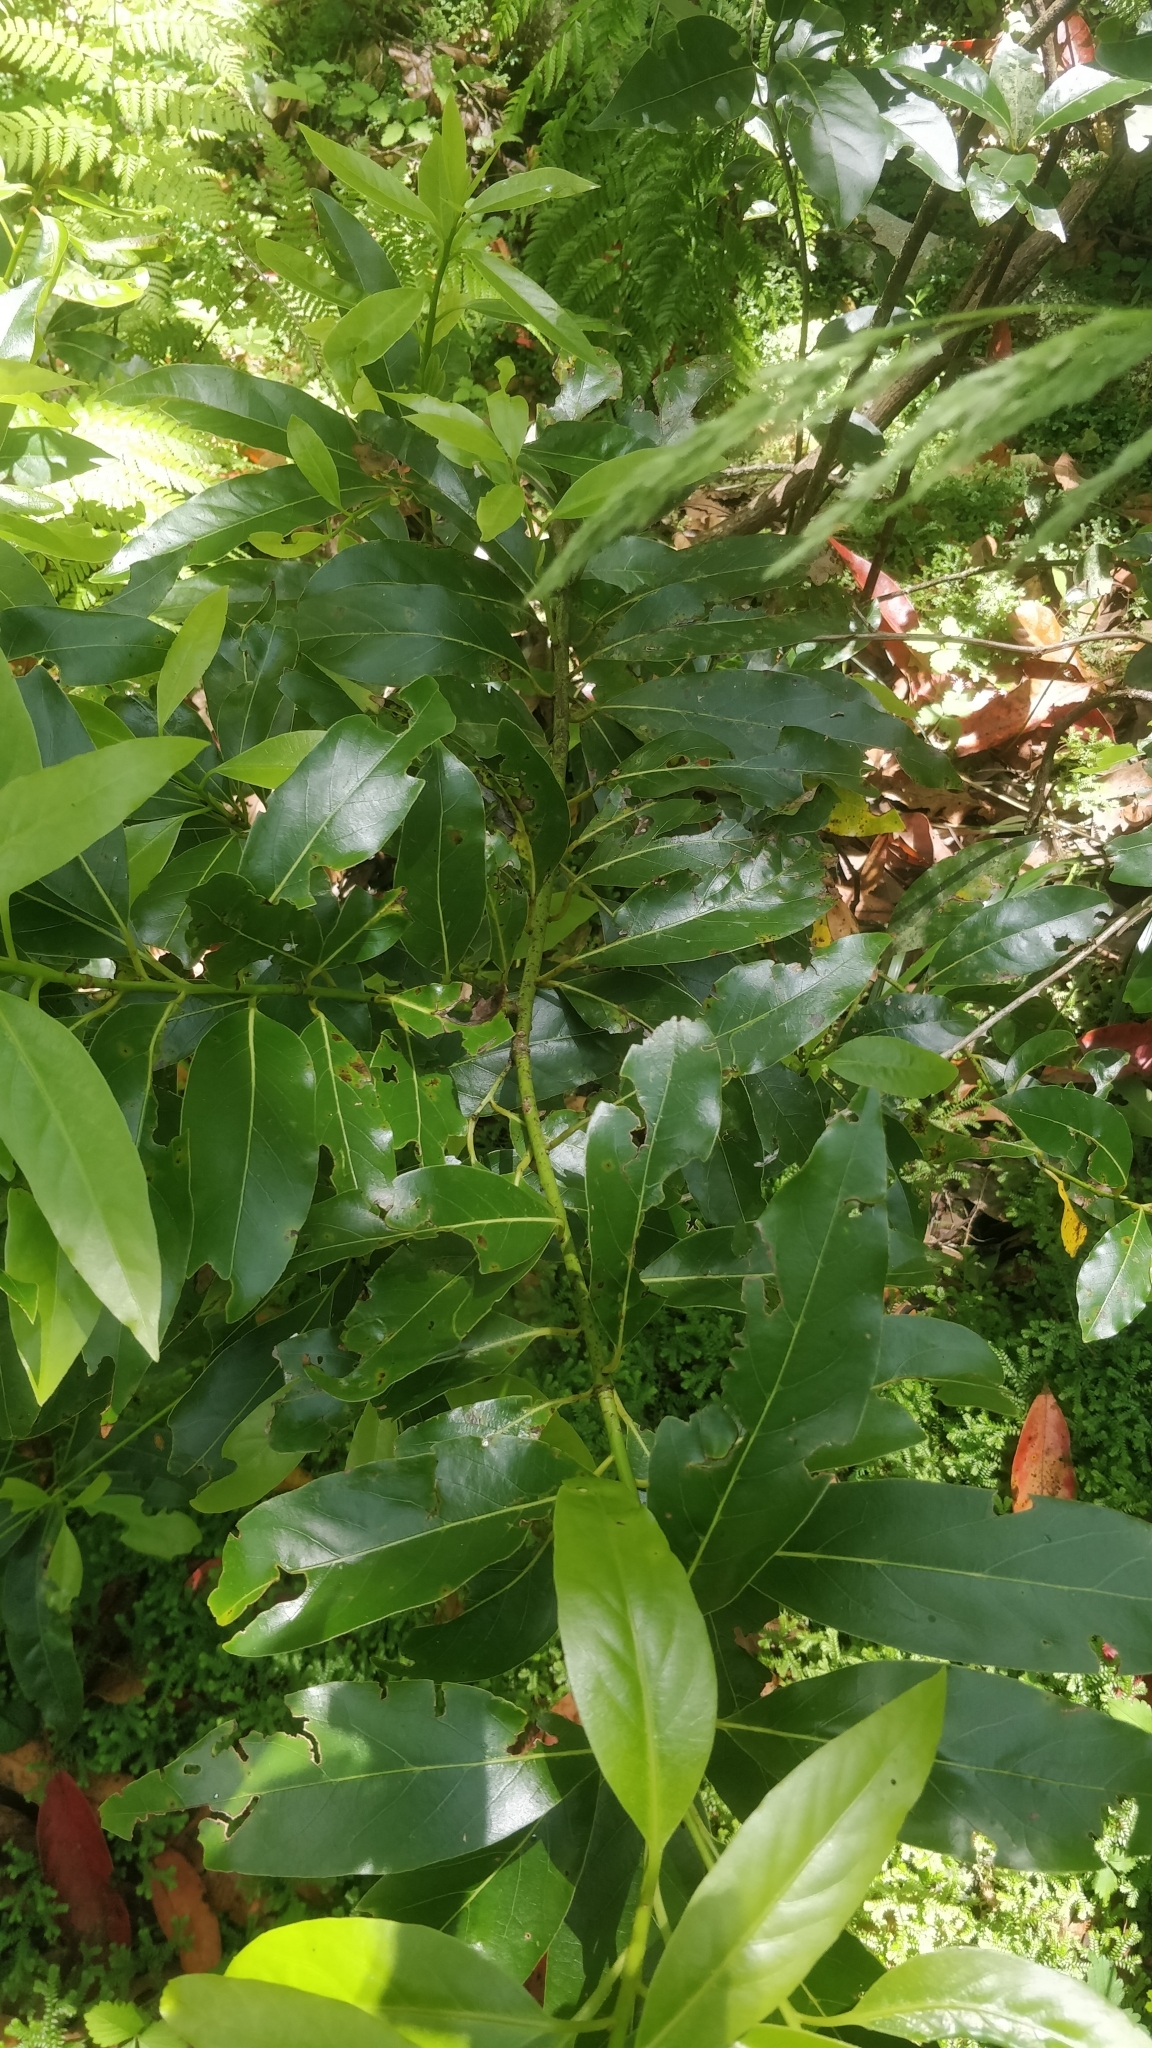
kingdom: Plantae
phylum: Tracheophyta
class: Magnoliopsida
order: Laurales
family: Lauraceae
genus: Laurus
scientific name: Laurus novocanariensis
